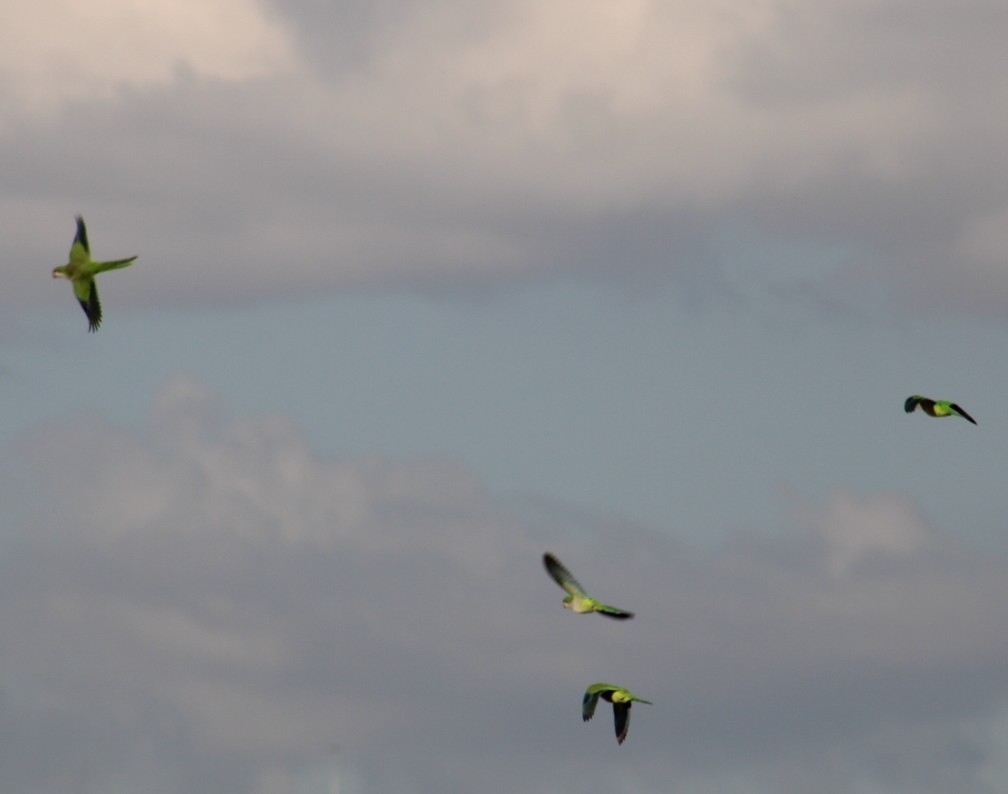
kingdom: Animalia
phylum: Chordata
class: Aves
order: Psittaciformes
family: Psittacidae
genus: Myiopsitta
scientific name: Myiopsitta monachus
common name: Monk parakeet
